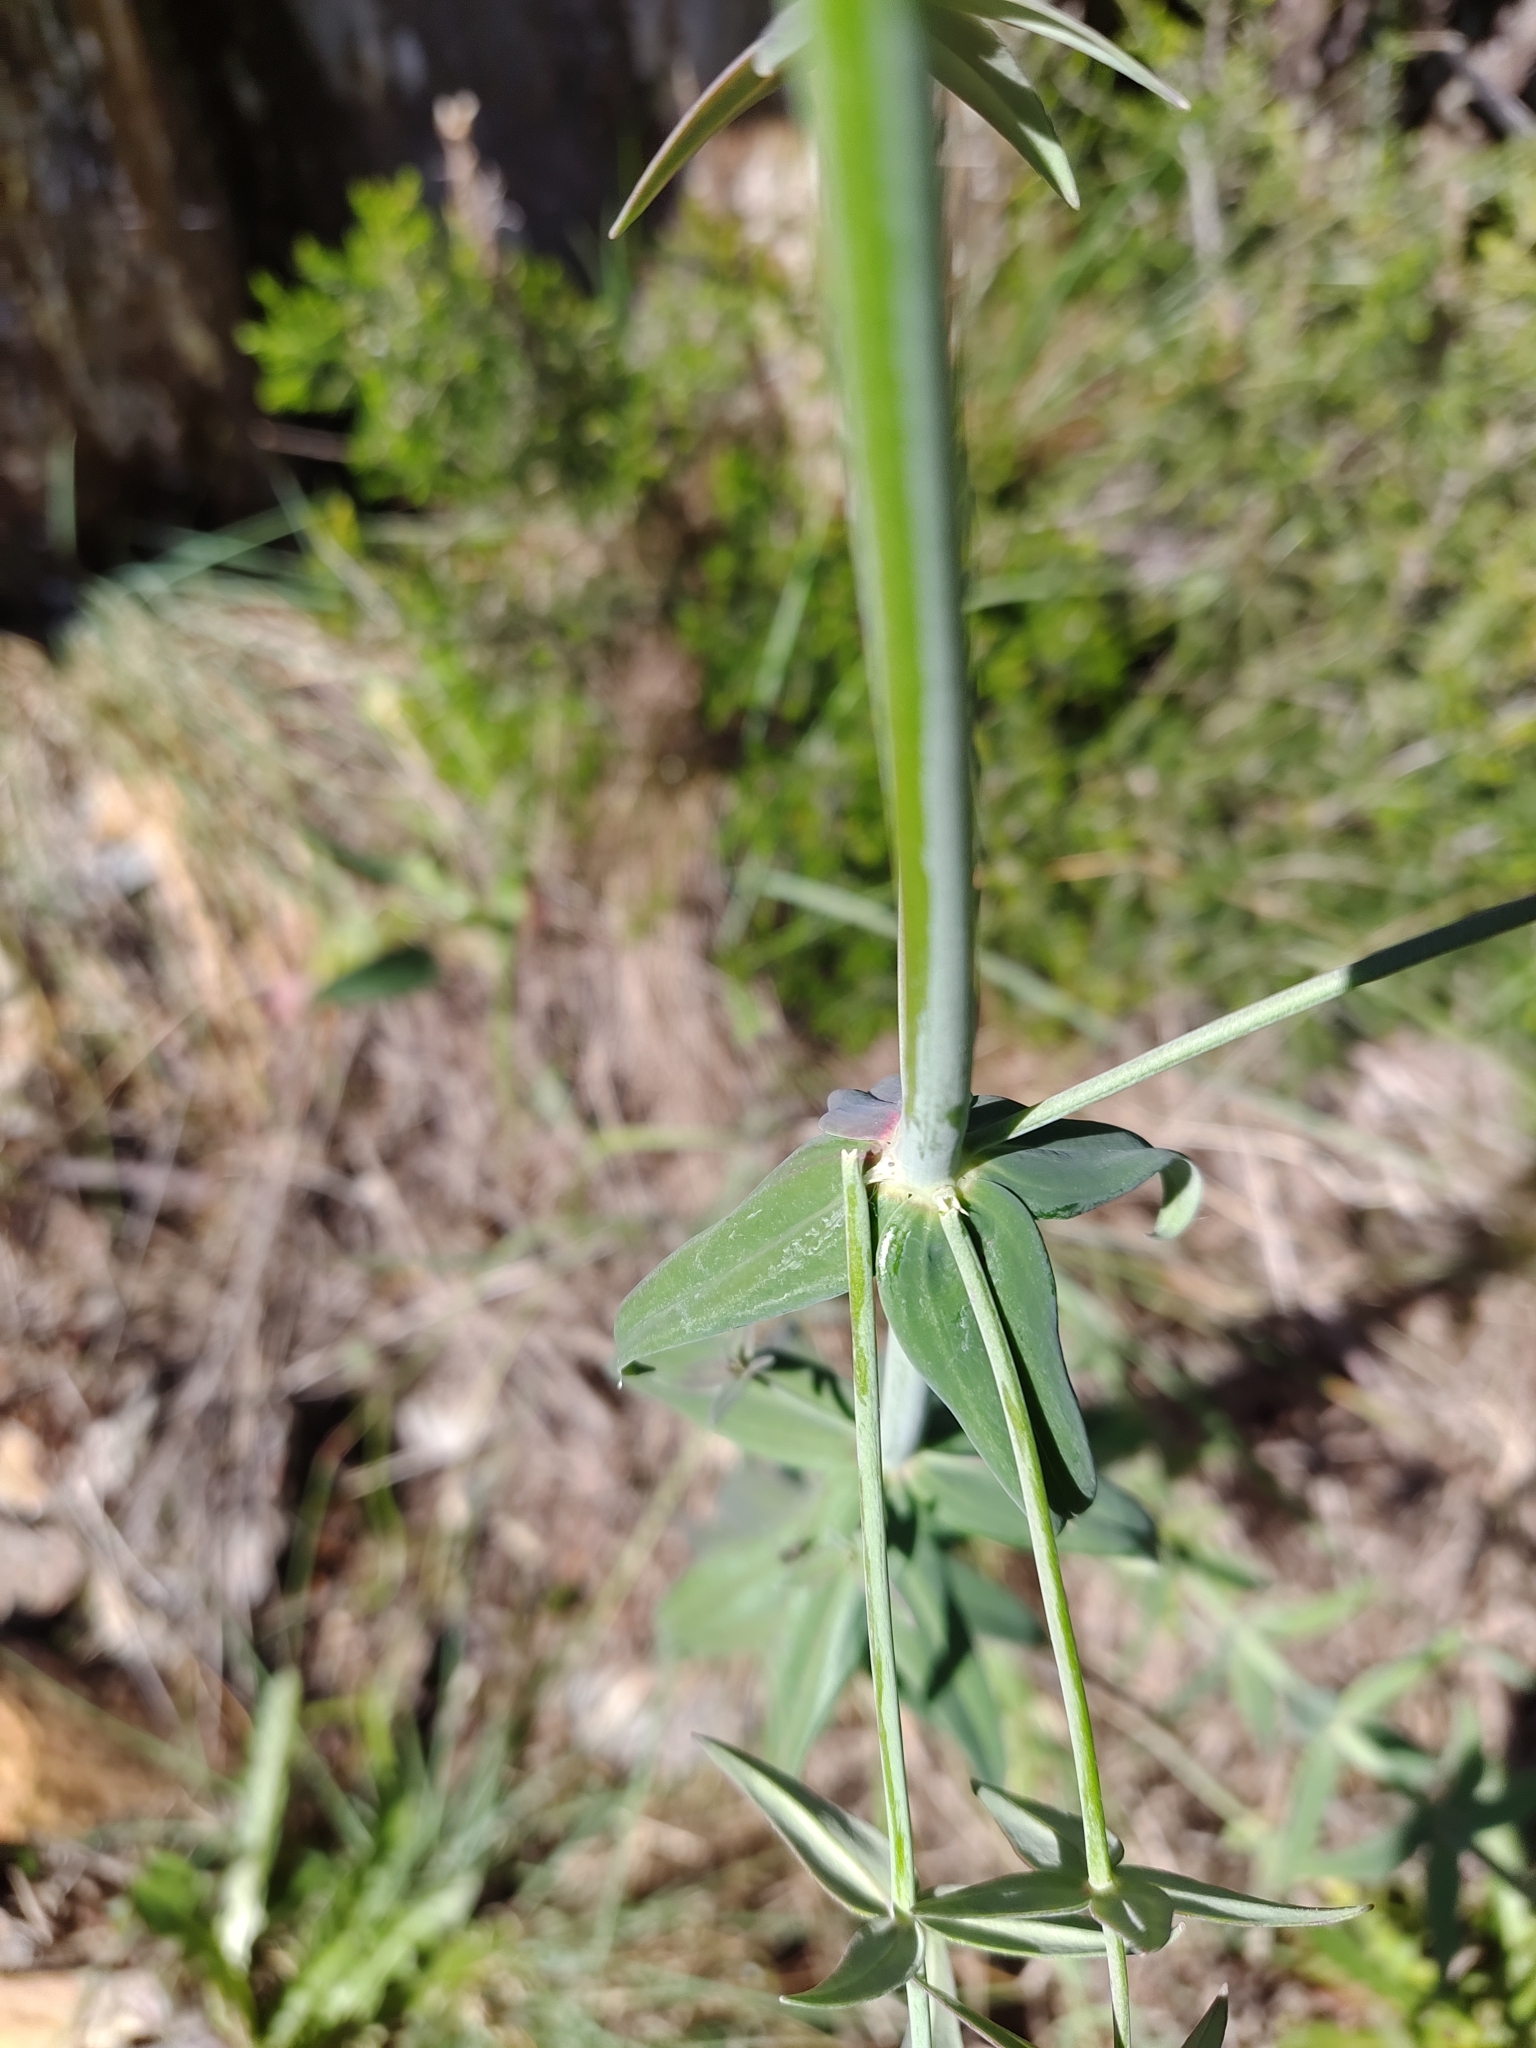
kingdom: Plantae
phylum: Tracheophyta
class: Magnoliopsida
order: Lamiales
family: Plantaginaceae
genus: Linaria
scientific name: Linaria triornithophora
